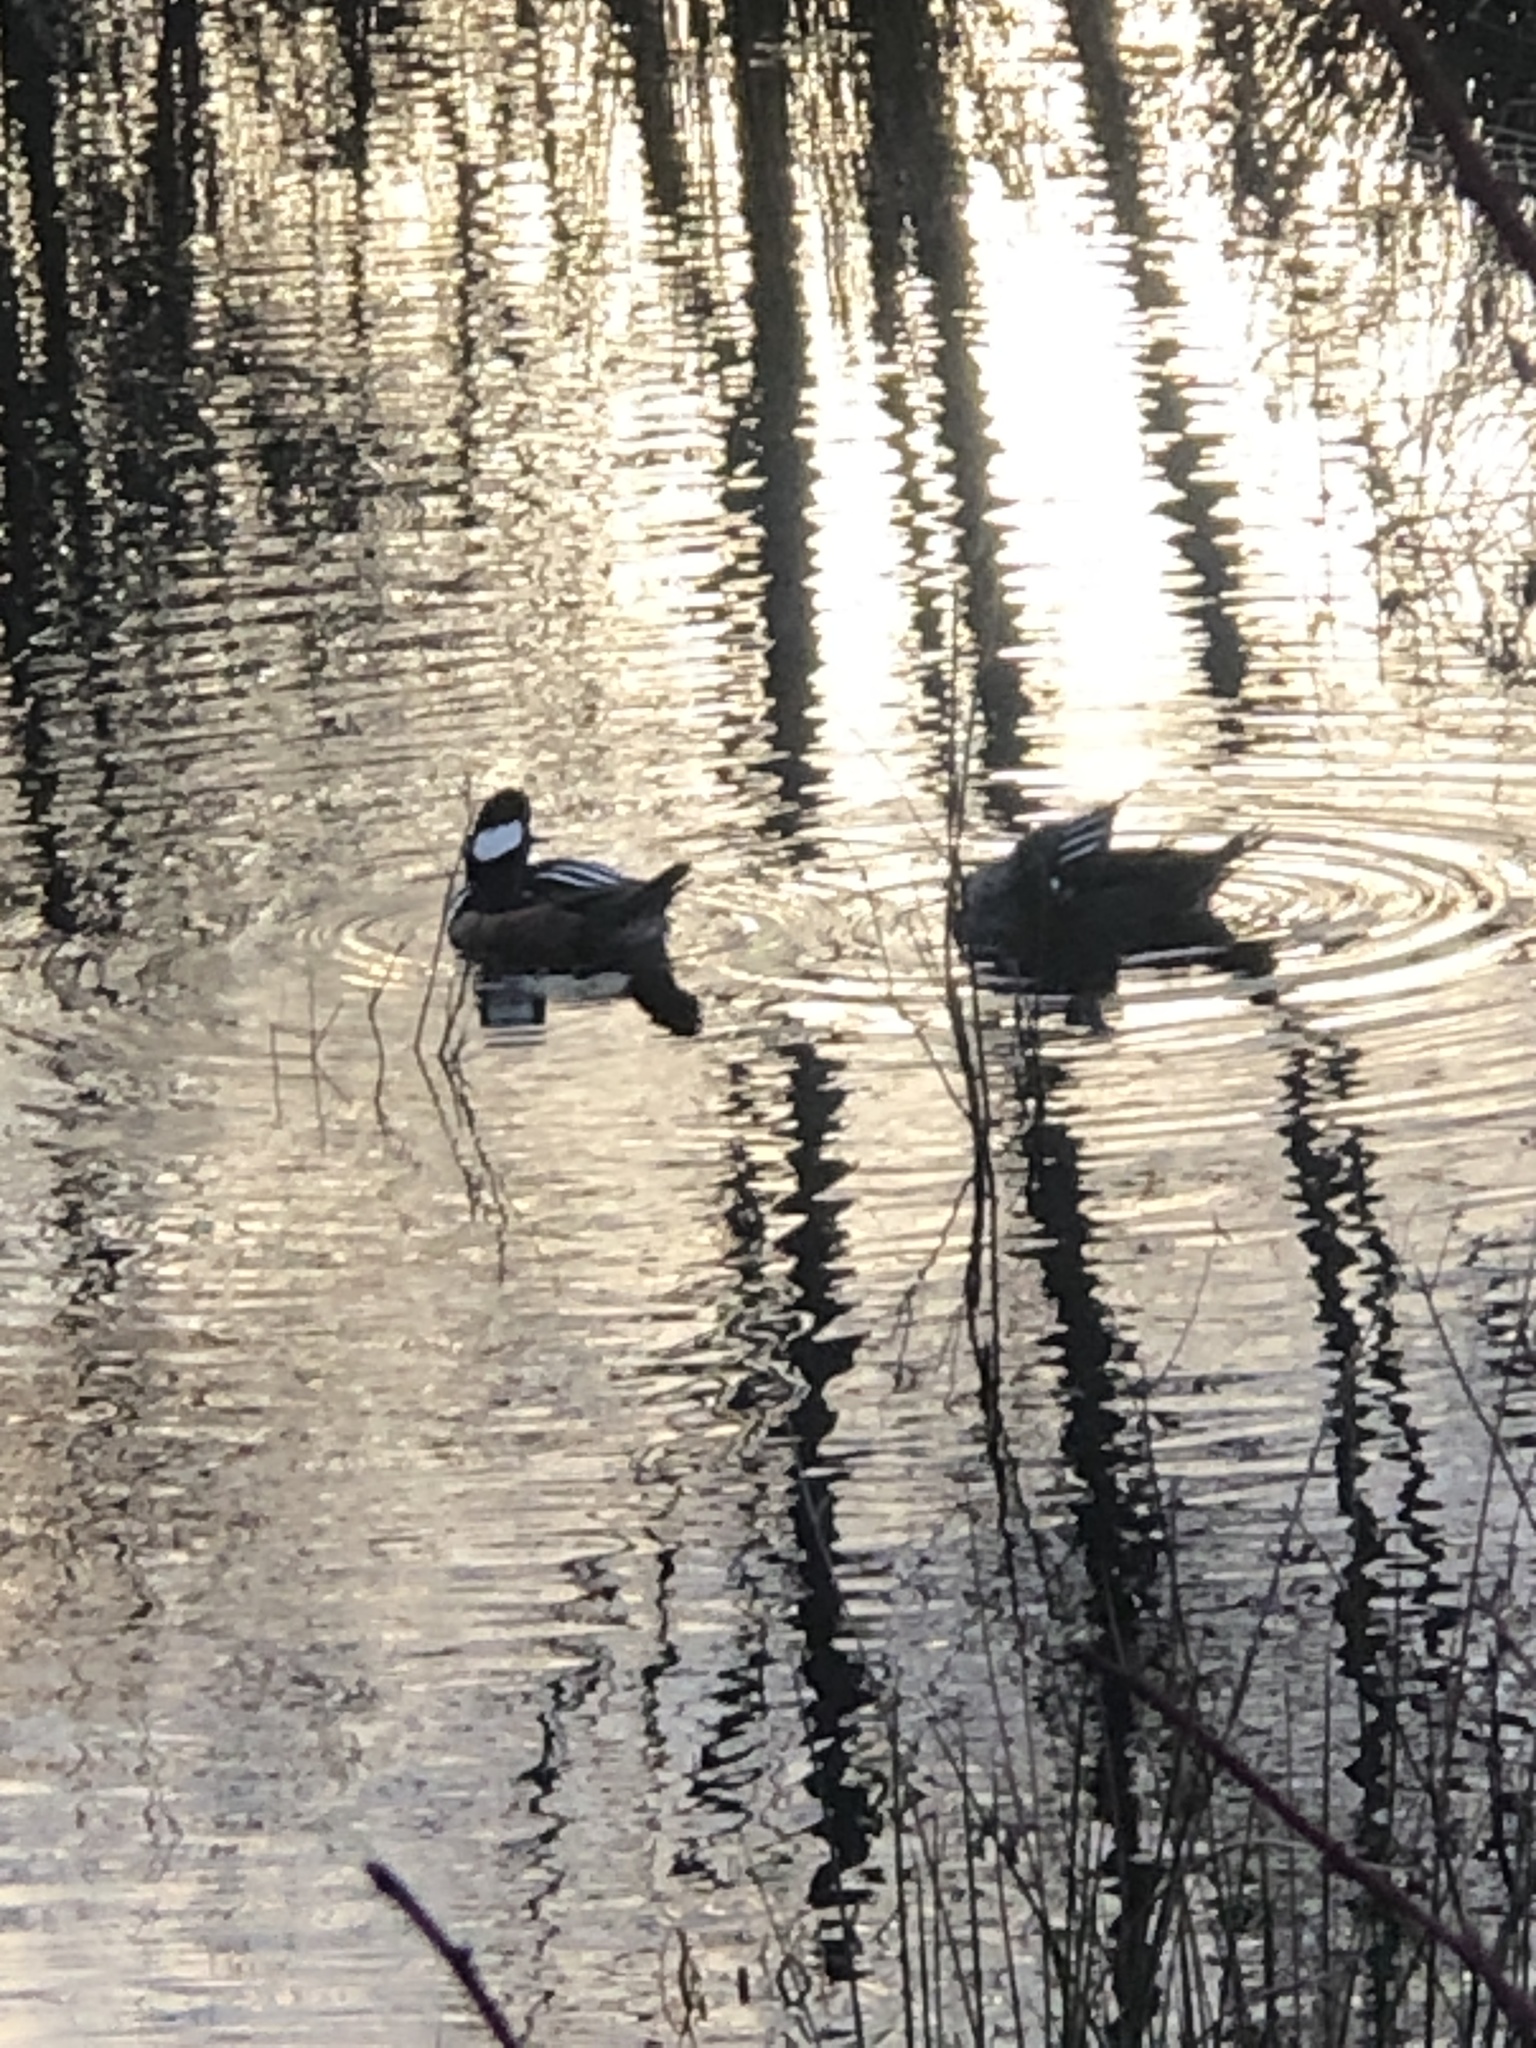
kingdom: Animalia
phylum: Chordata
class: Aves
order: Anseriformes
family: Anatidae
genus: Lophodytes
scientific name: Lophodytes cucullatus
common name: Hooded merganser
